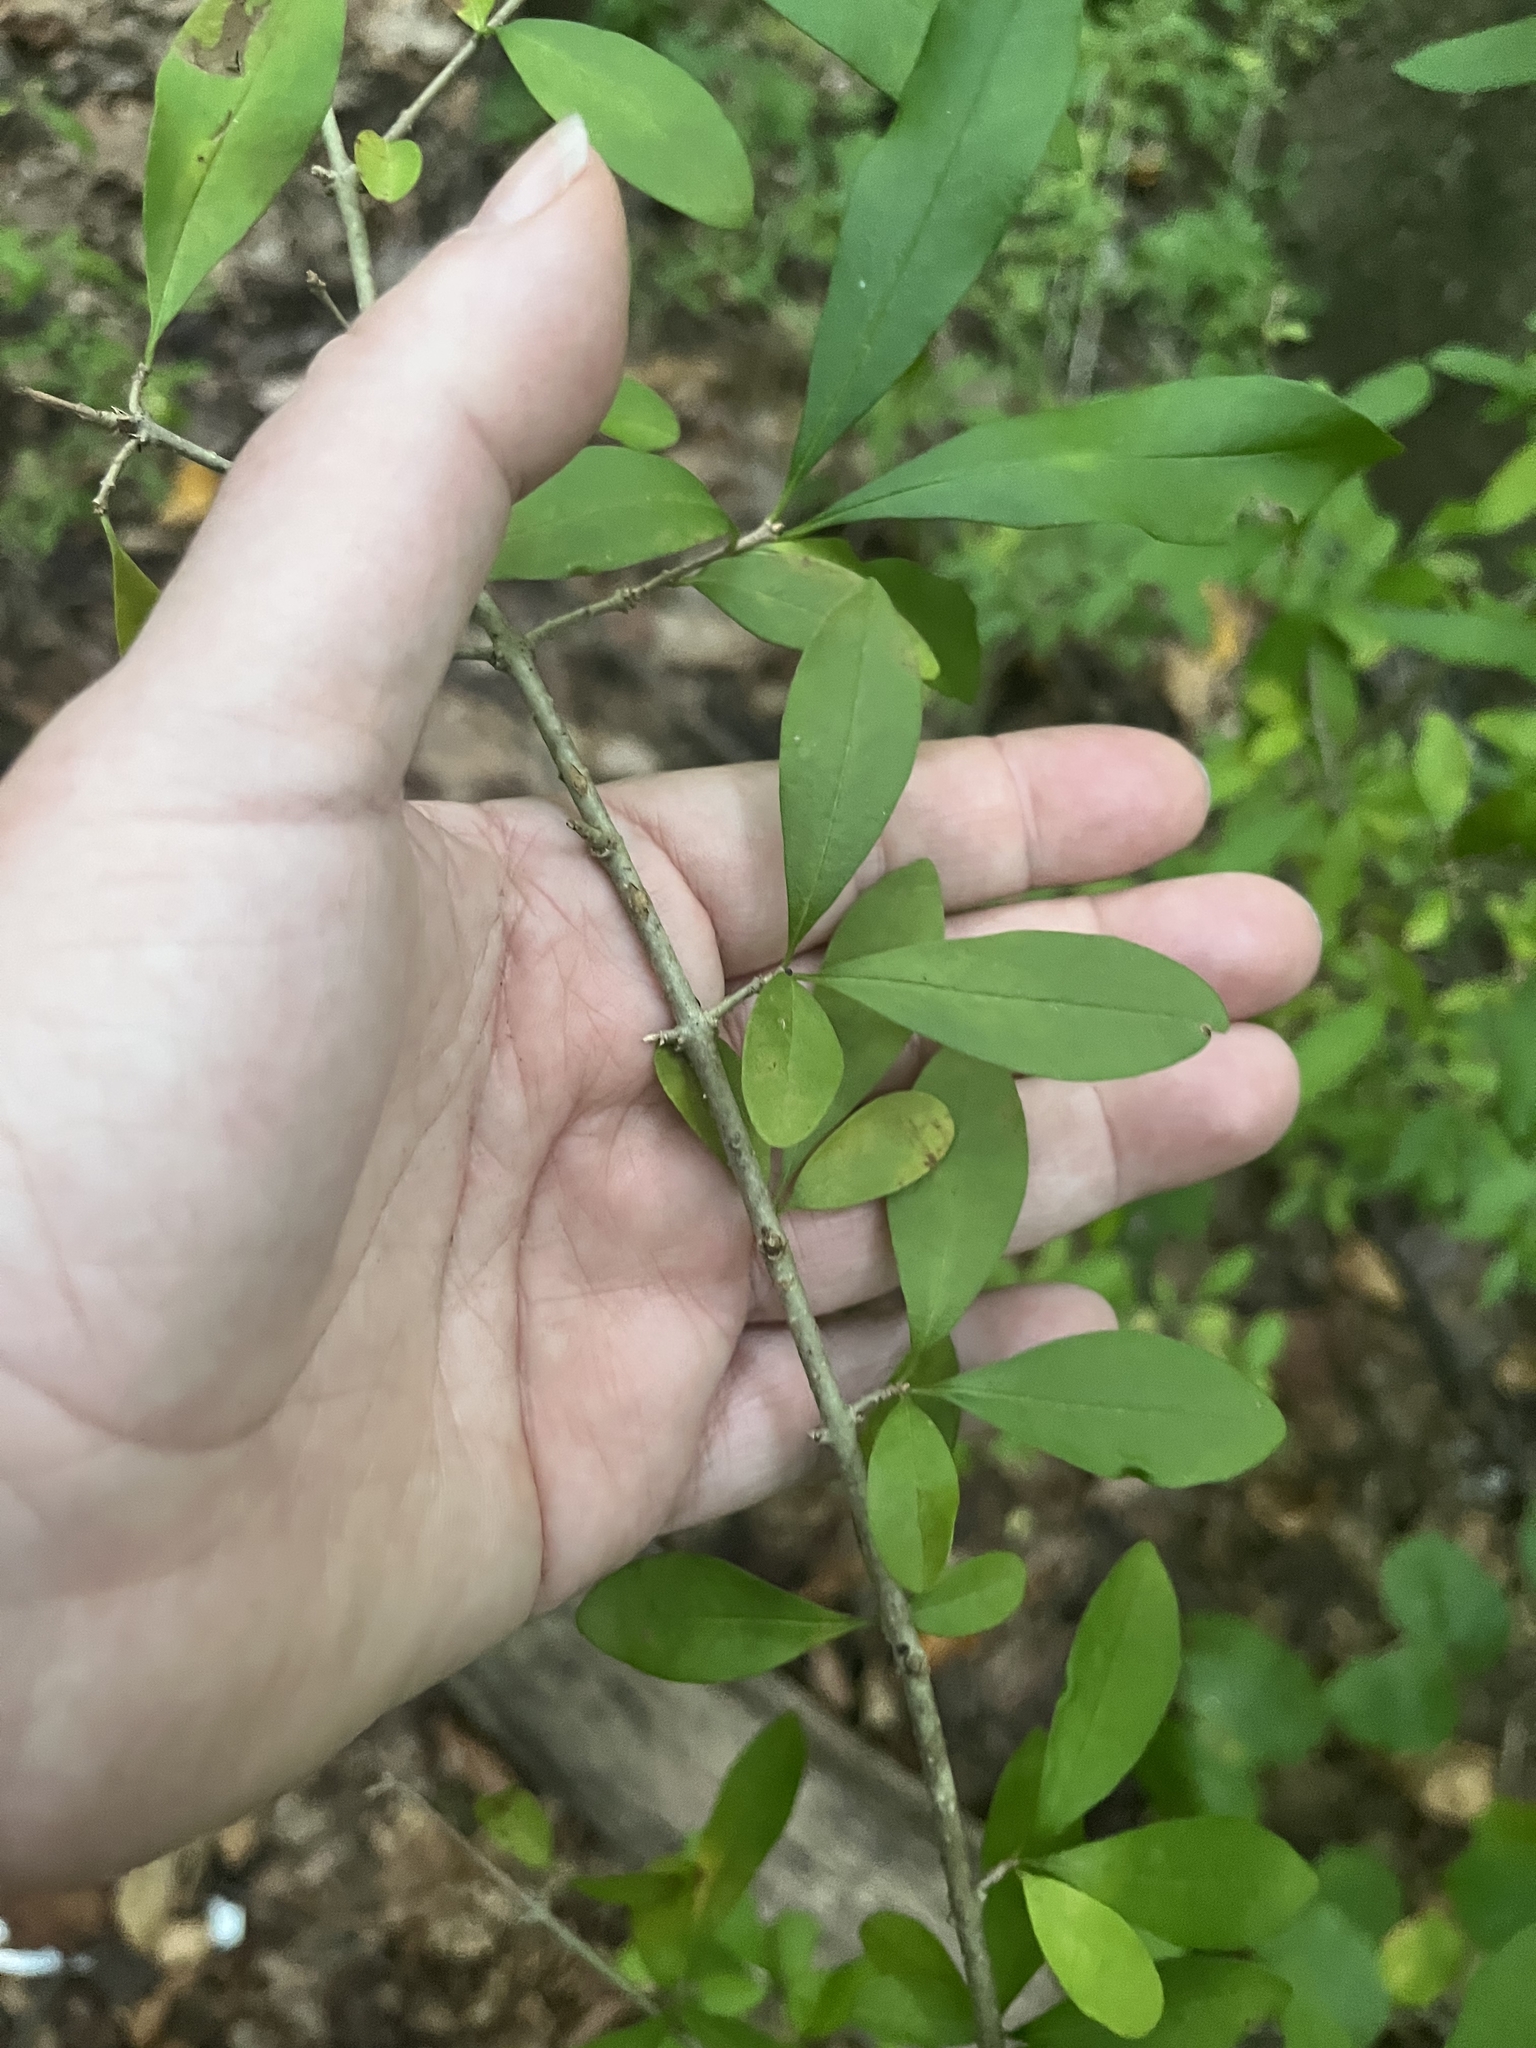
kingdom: Plantae
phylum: Tracheophyta
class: Magnoliopsida
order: Lamiales
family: Oleaceae
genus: Ligustrum
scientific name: Ligustrum obtusifolium
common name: Border privet
